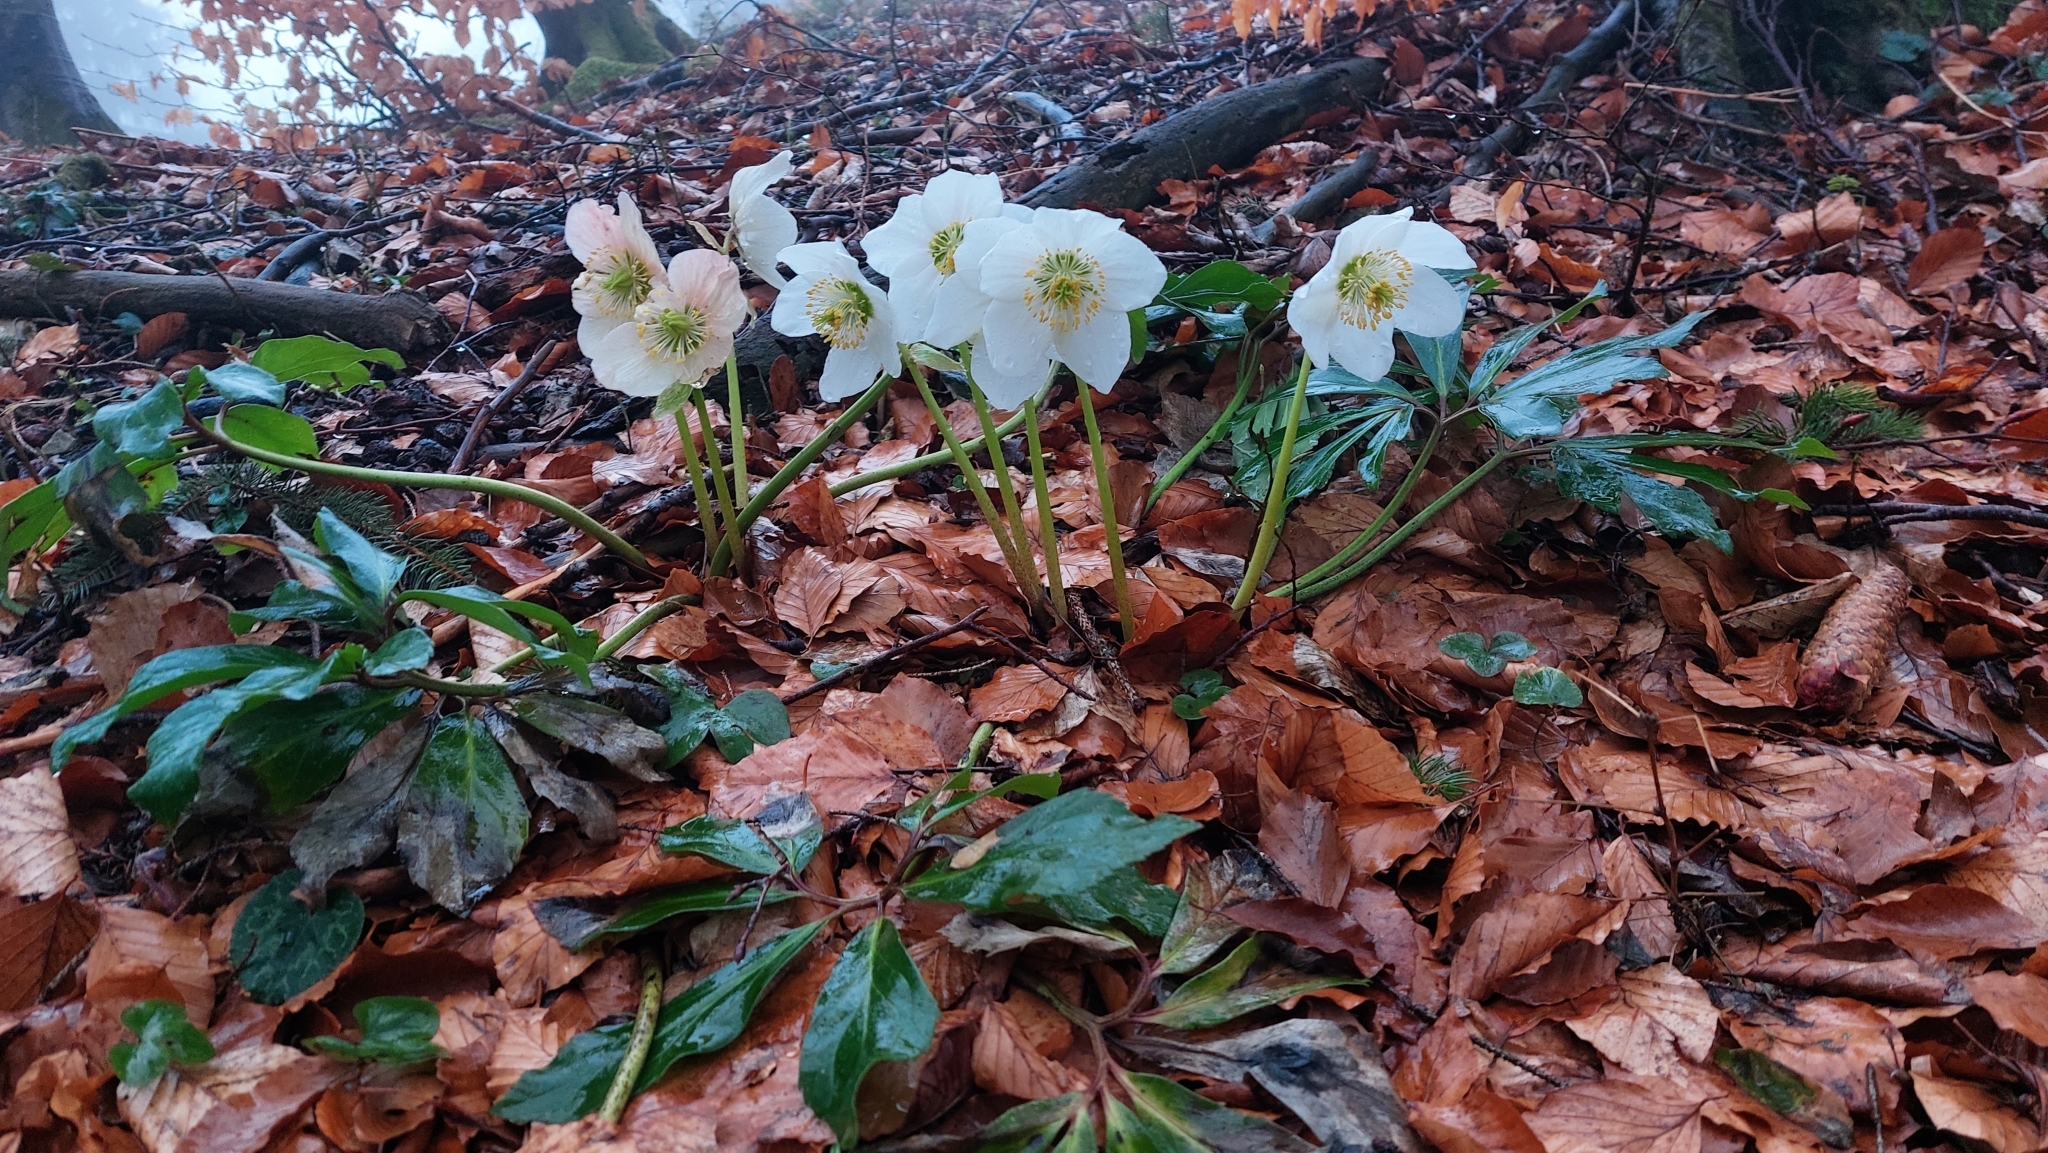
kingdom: Plantae
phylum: Tracheophyta
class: Magnoliopsida
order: Ranunculales
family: Ranunculaceae
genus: Helleborus
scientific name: Helleborus niger
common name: Black hellebore
